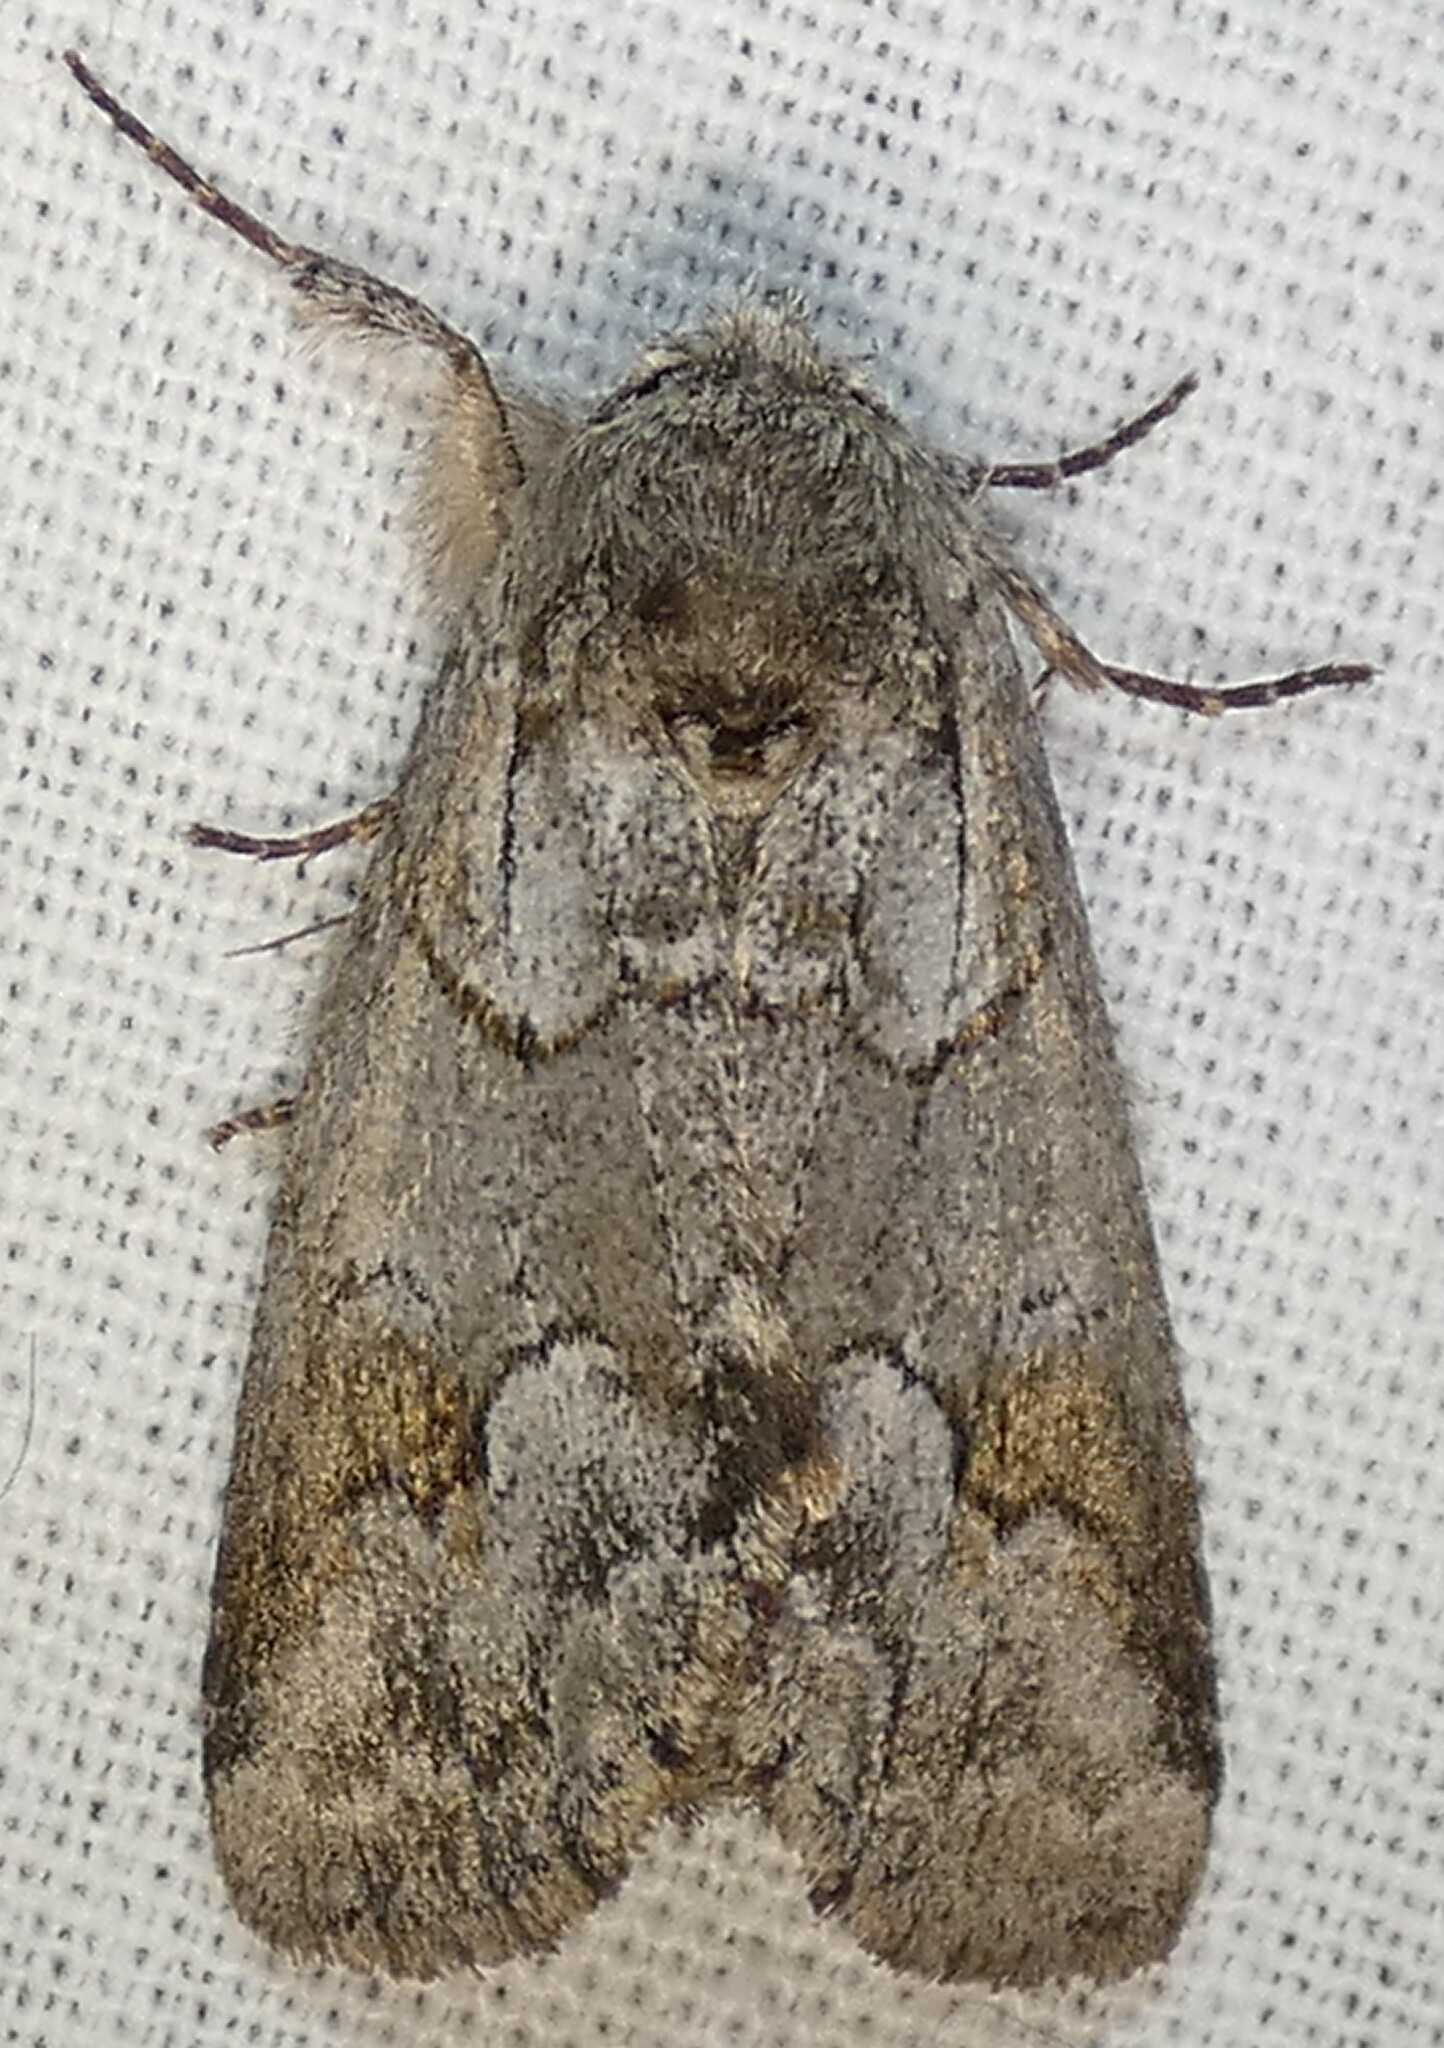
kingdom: Animalia
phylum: Arthropoda
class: Insecta
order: Lepidoptera
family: Notodontidae
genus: Lochmaeus
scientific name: Lochmaeus bilineata
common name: Double-lined prominent
